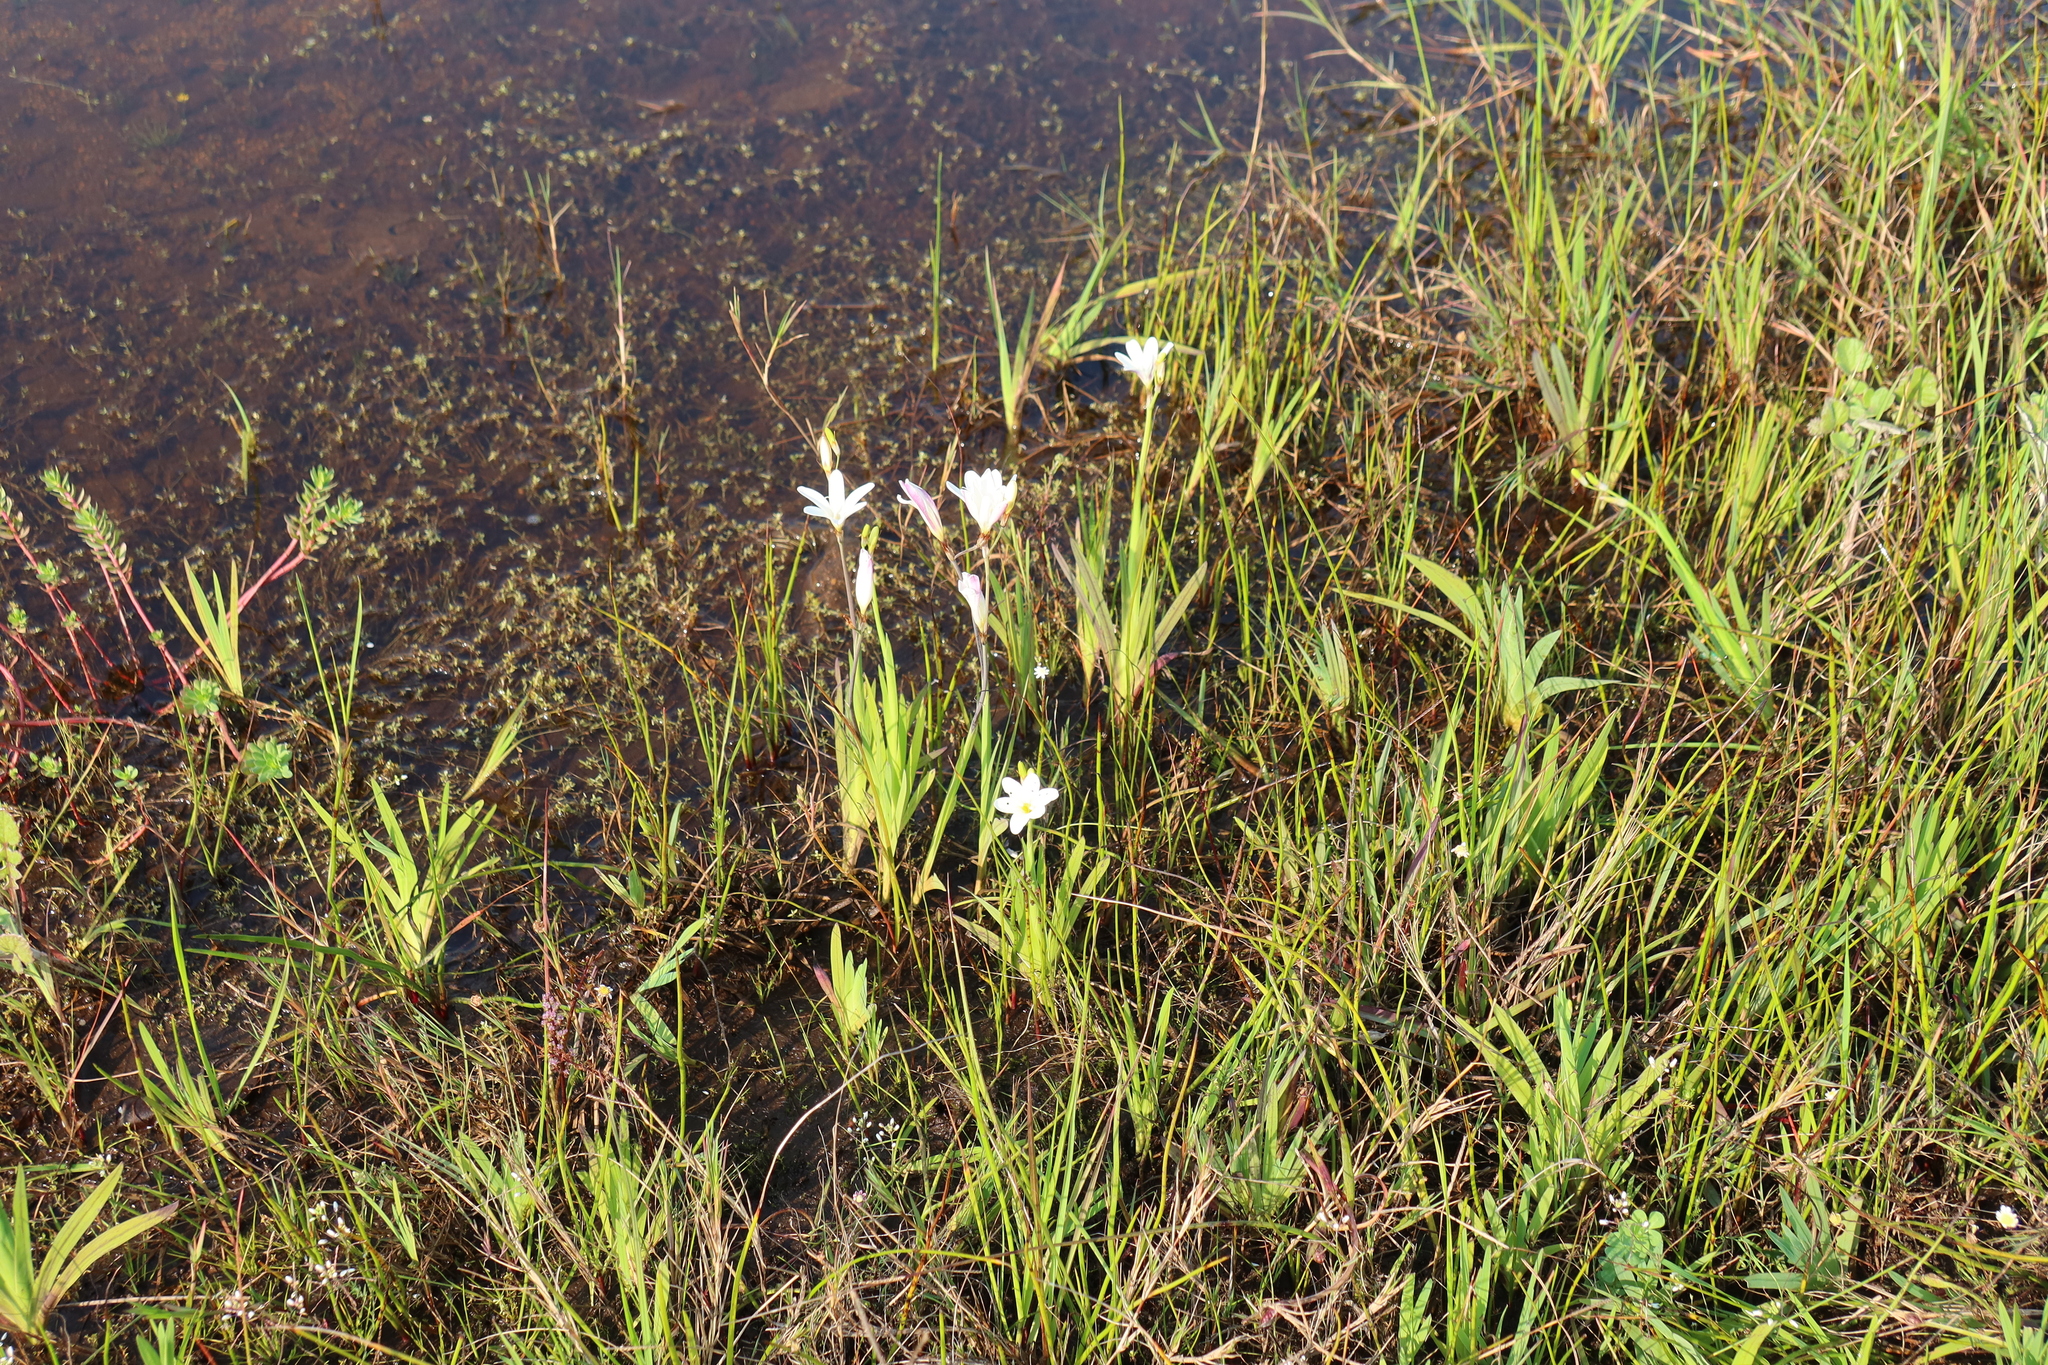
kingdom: Plantae
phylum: Tracheophyta
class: Liliopsida
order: Asparagales
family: Iridaceae
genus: Sparaxis
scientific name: Sparaxis bulbifera
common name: Harlequin-flower
